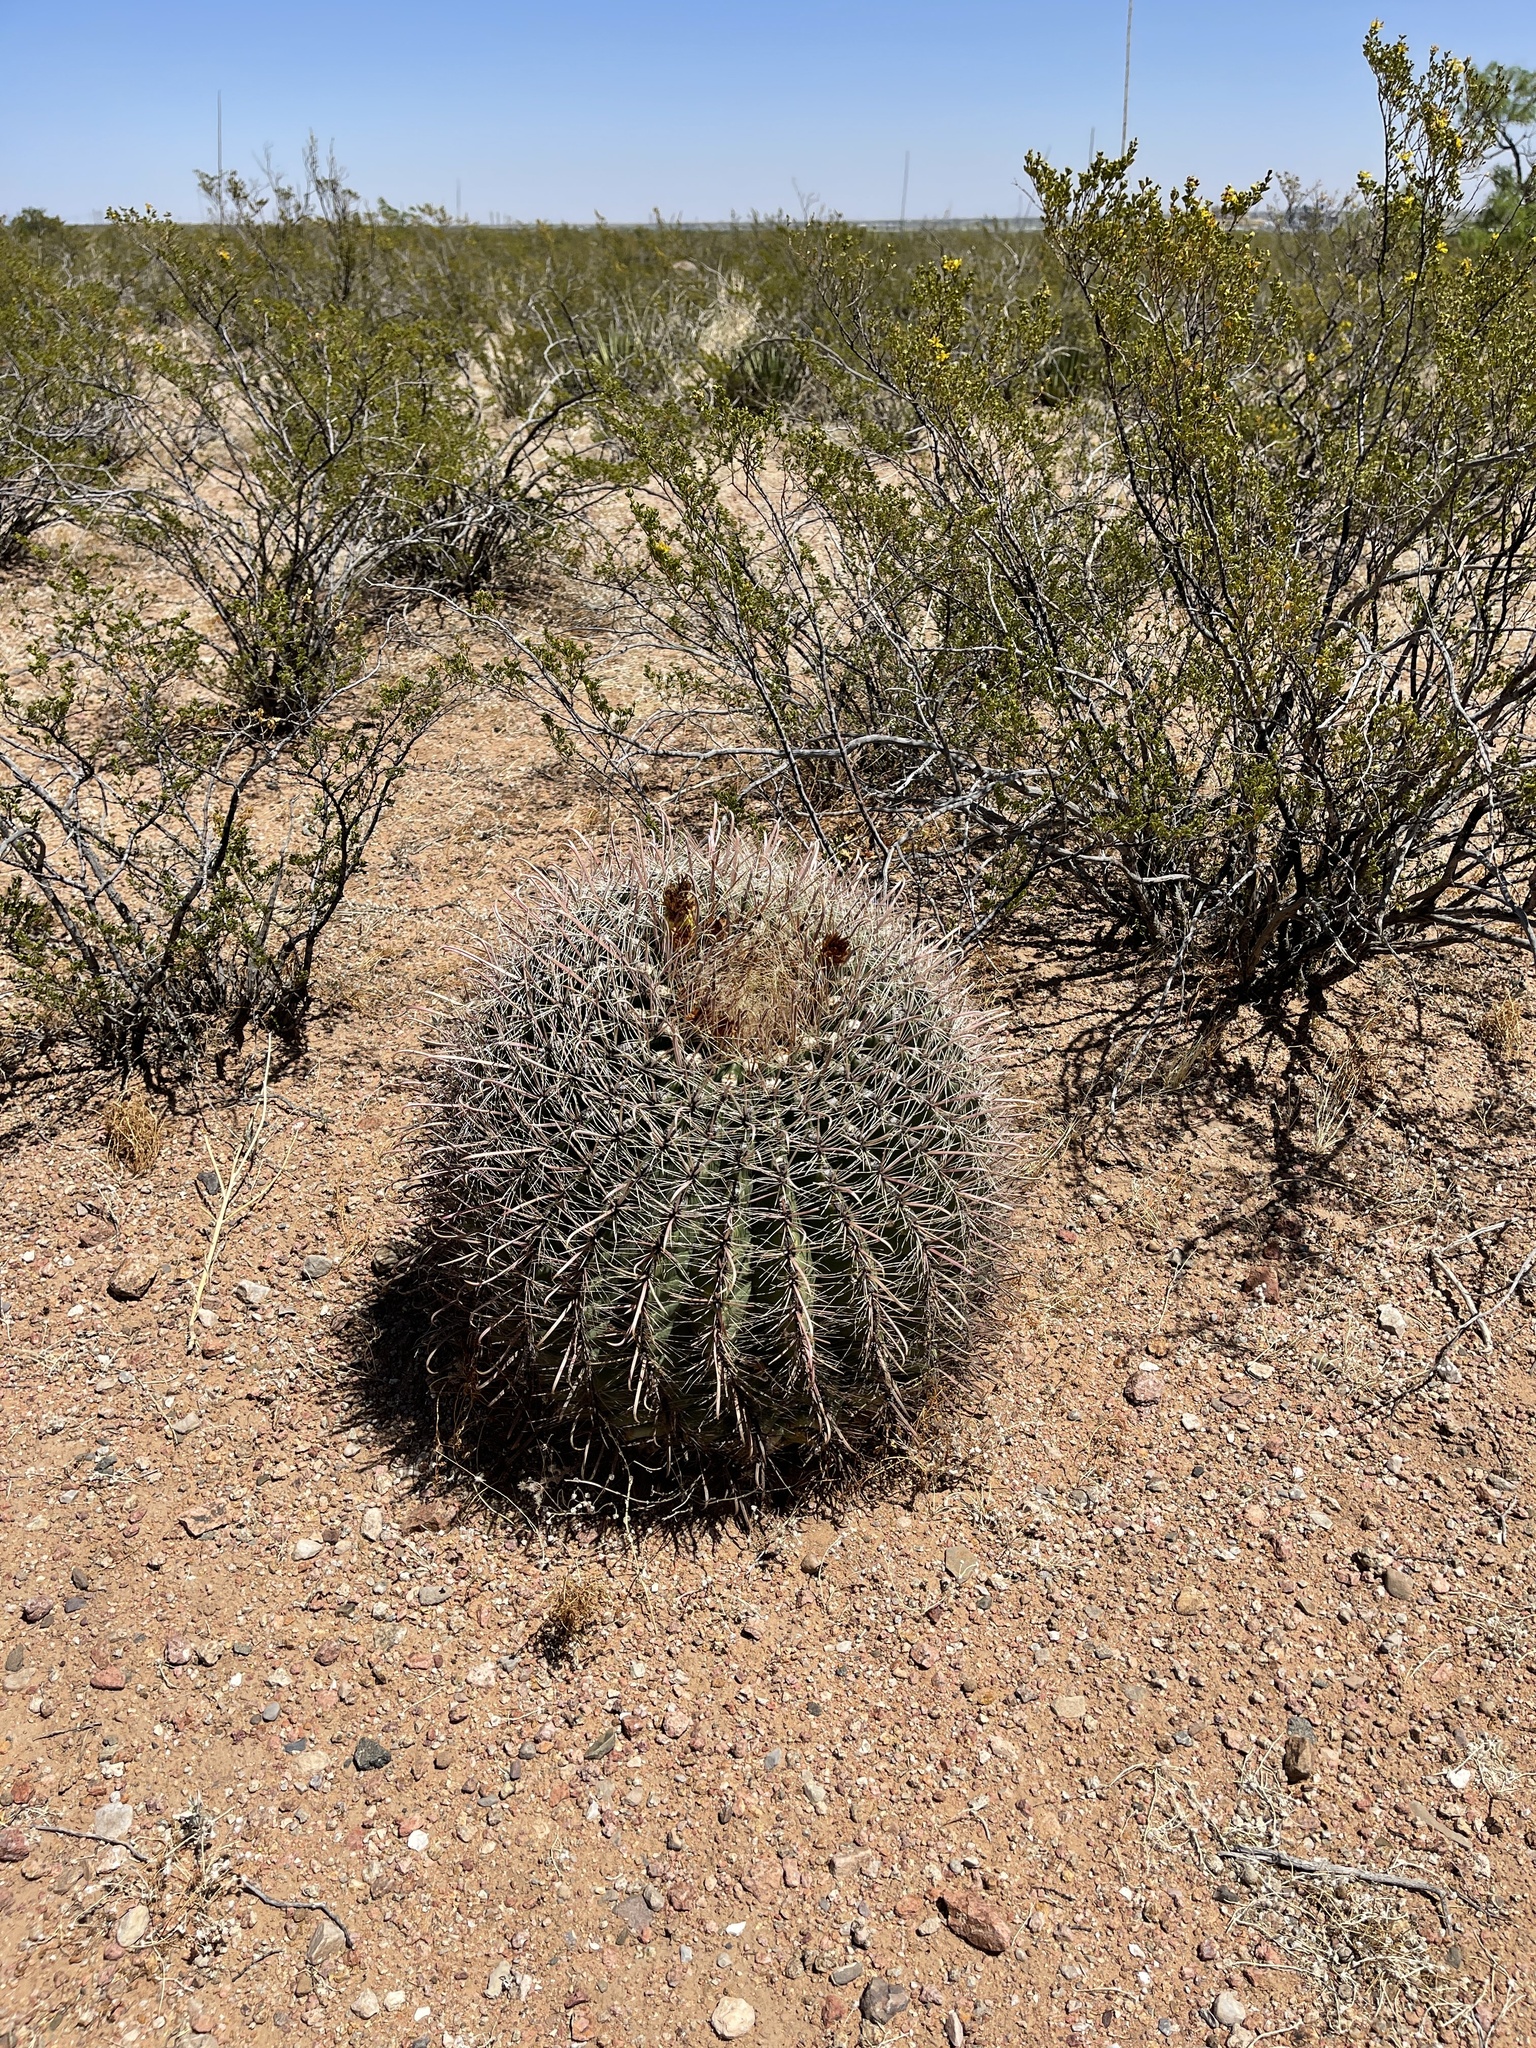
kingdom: Plantae
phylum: Tracheophyta
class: Magnoliopsida
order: Caryophyllales
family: Cactaceae
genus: Ferocactus
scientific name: Ferocactus wislizeni
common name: Candy barrel cactus
